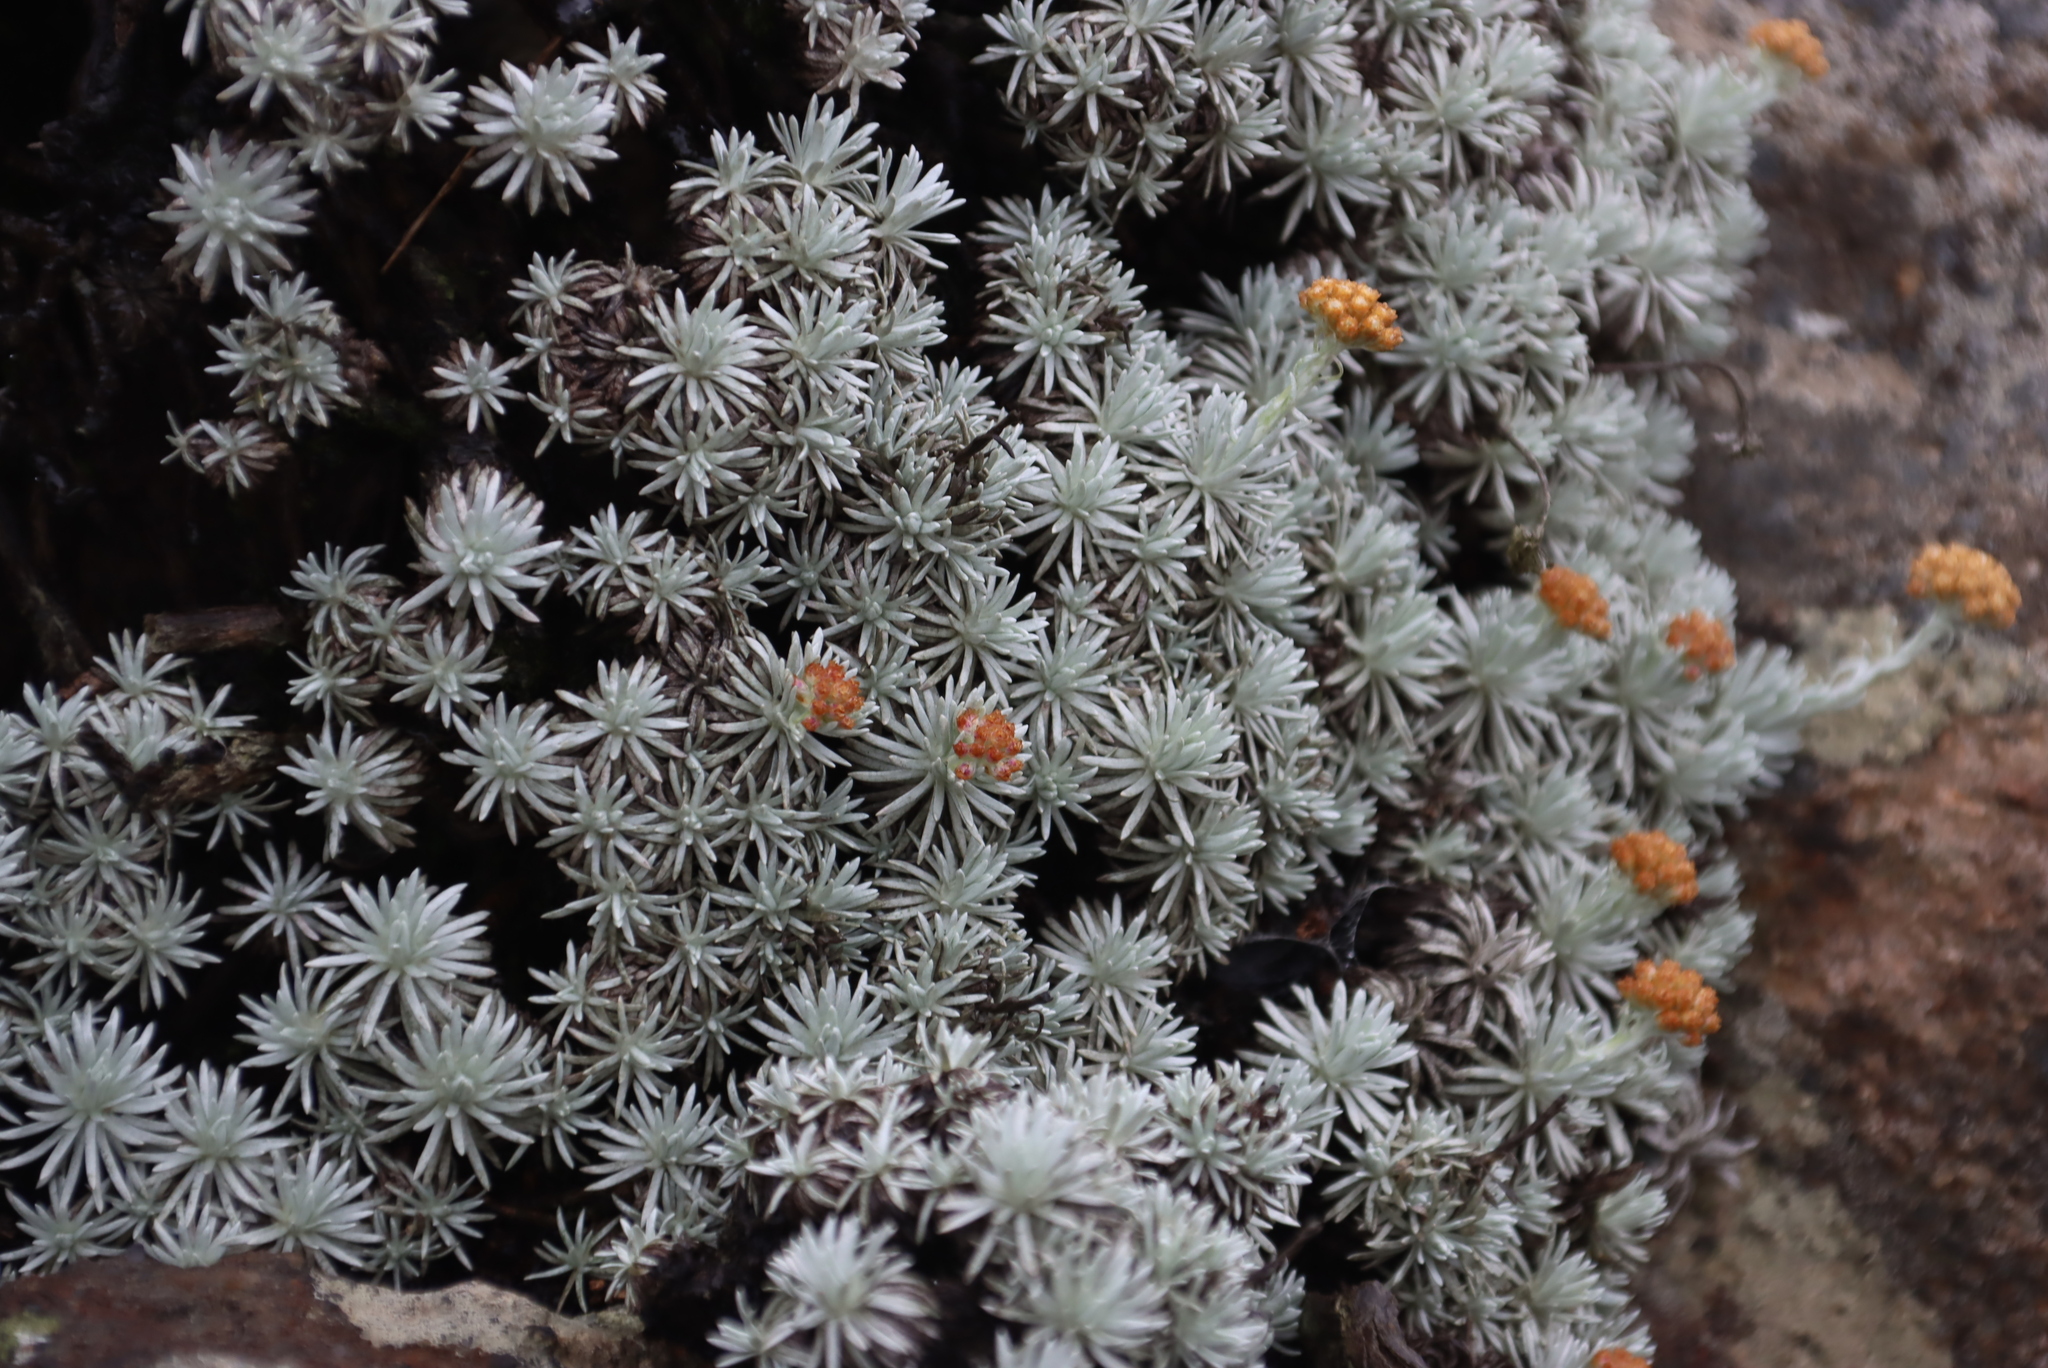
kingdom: Plantae
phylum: Tracheophyta
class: Magnoliopsida
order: Asterales
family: Asteraceae
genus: Helichrysum
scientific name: Helichrysum galpinii
